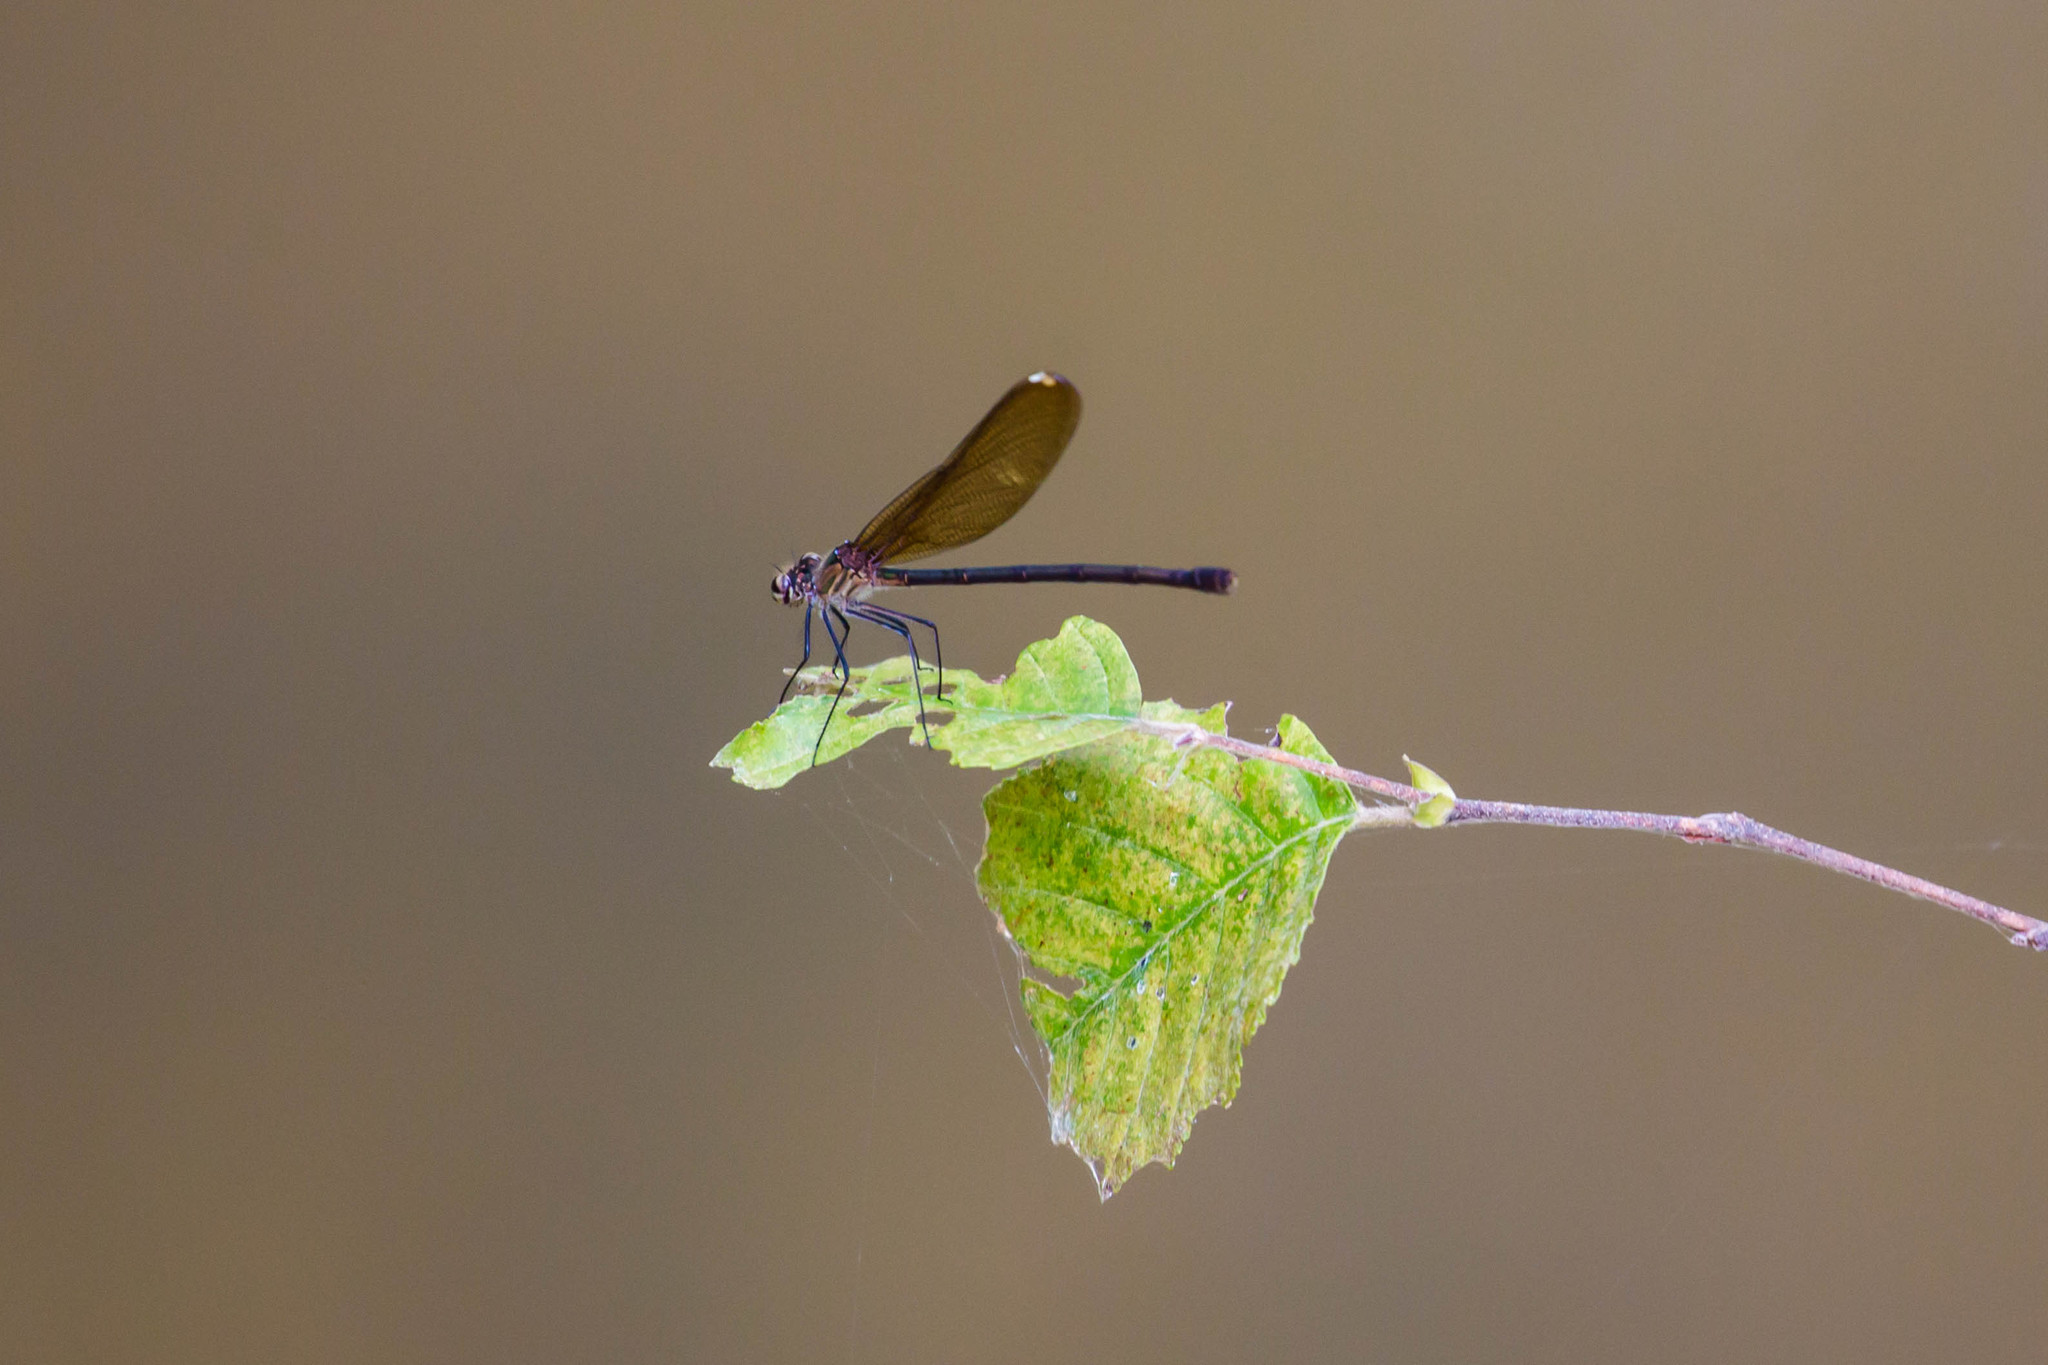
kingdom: Animalia
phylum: Arthropoda
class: Insecta
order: Odonata
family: Calopterygidae
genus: Hetaerina
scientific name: Hetaerina titia
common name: Smoky rubyspot
